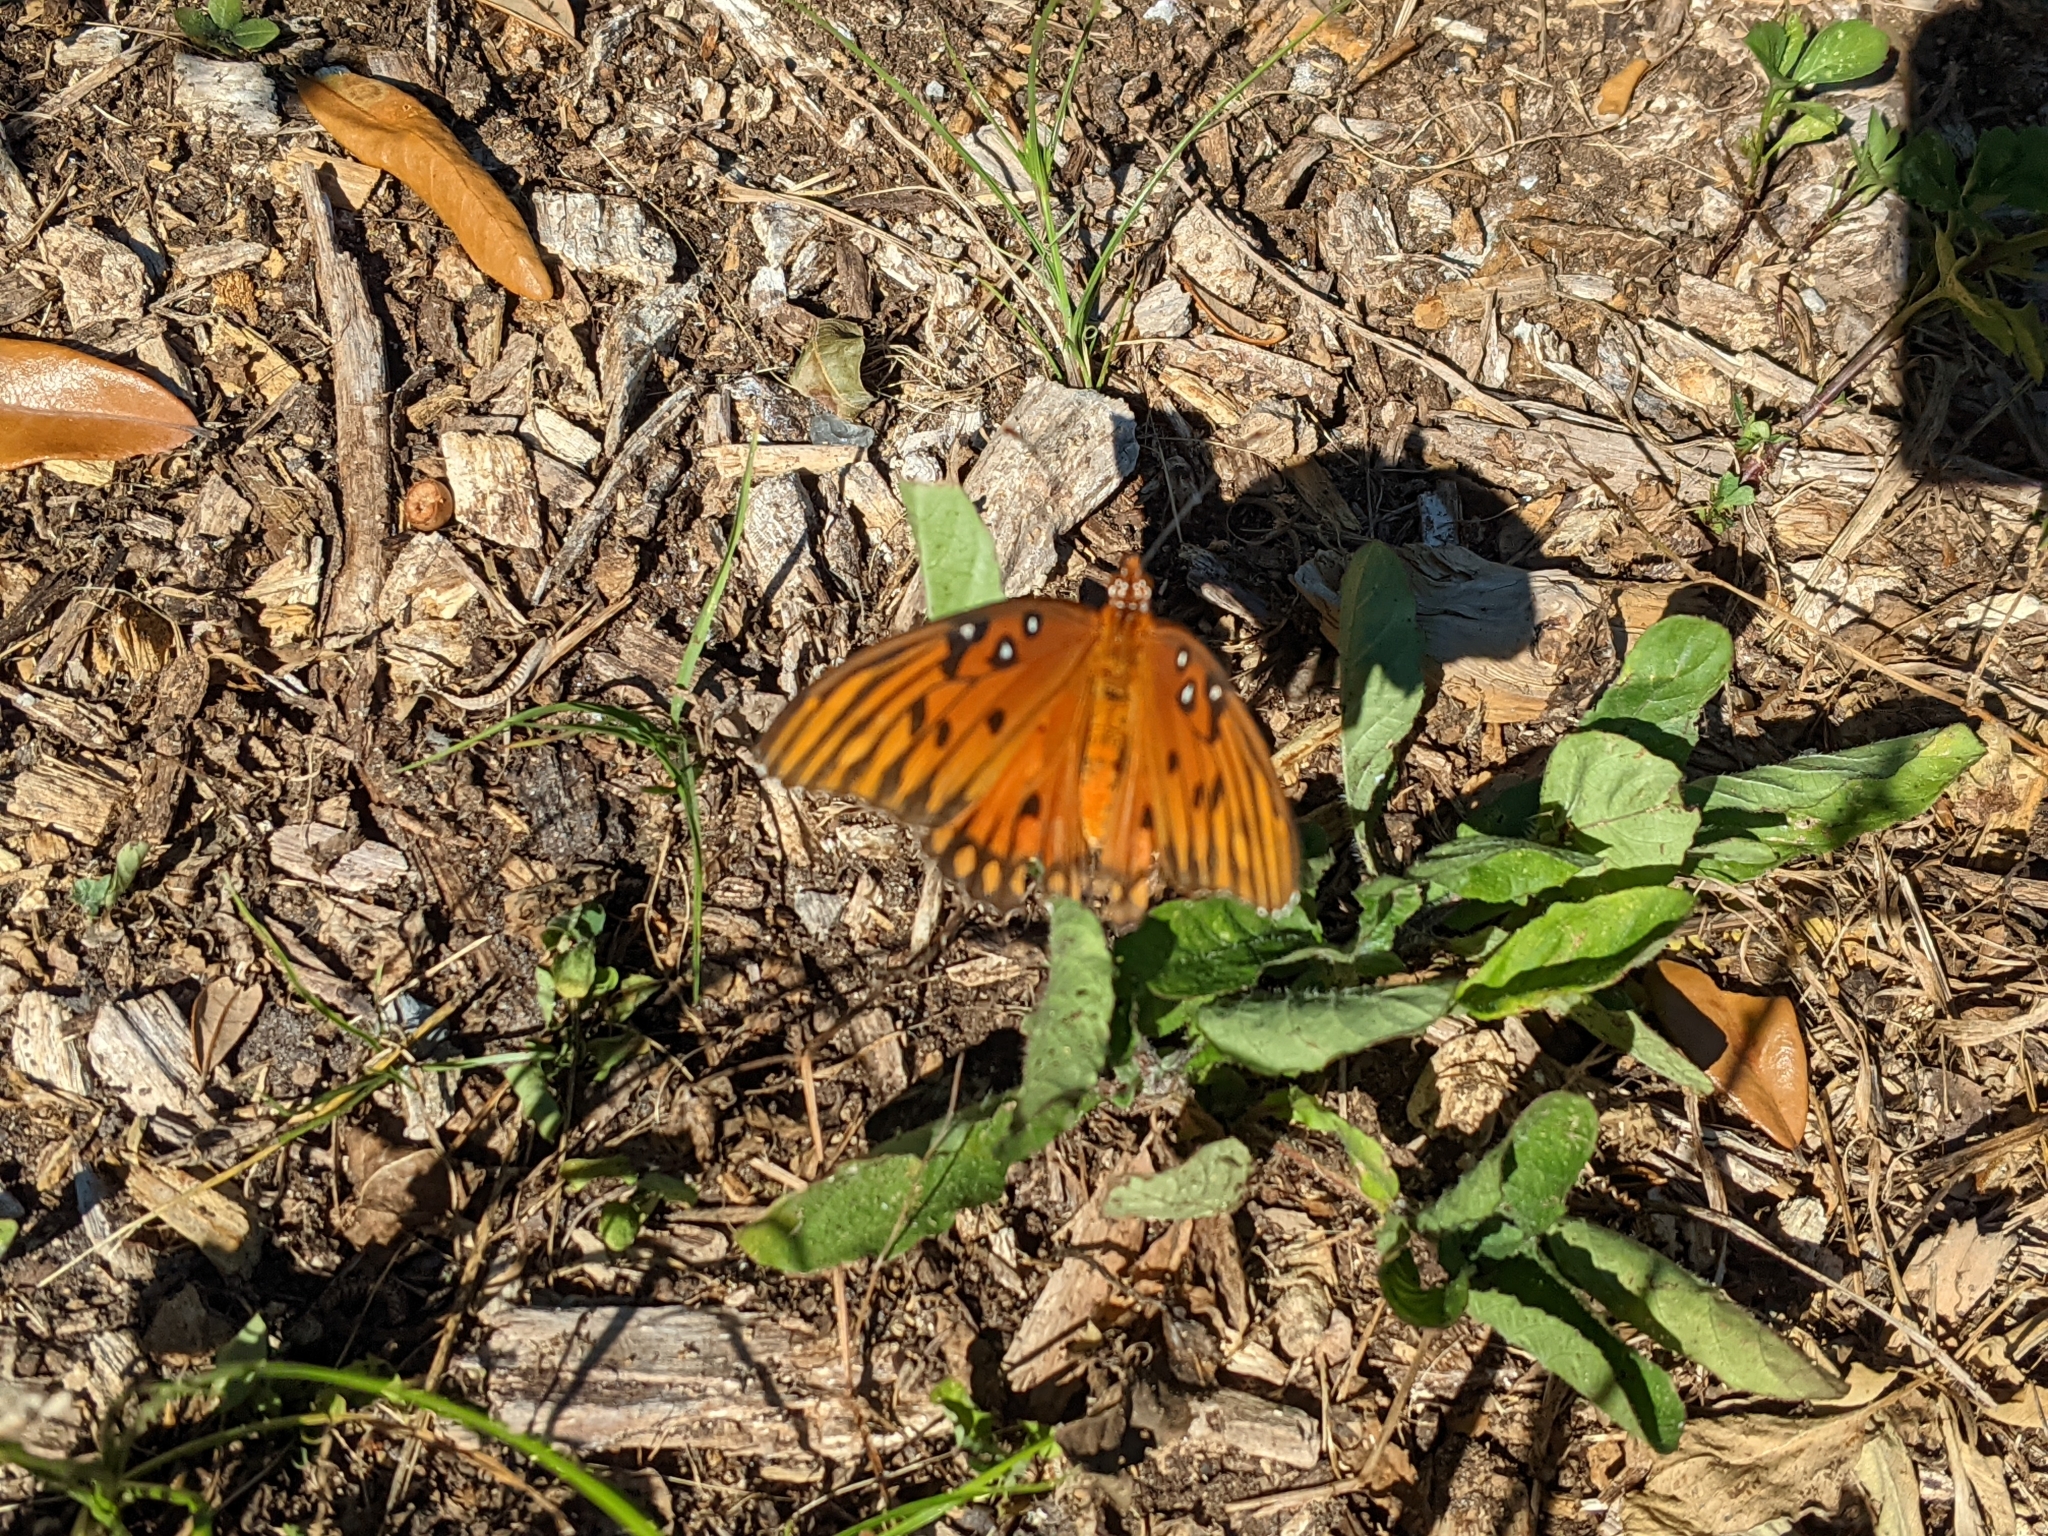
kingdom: Animalia
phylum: Arthropoda
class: Insecta
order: Lepidoptera
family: Nymphalidae
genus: Dione
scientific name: Dione vanillae
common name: Gulf fritillary
